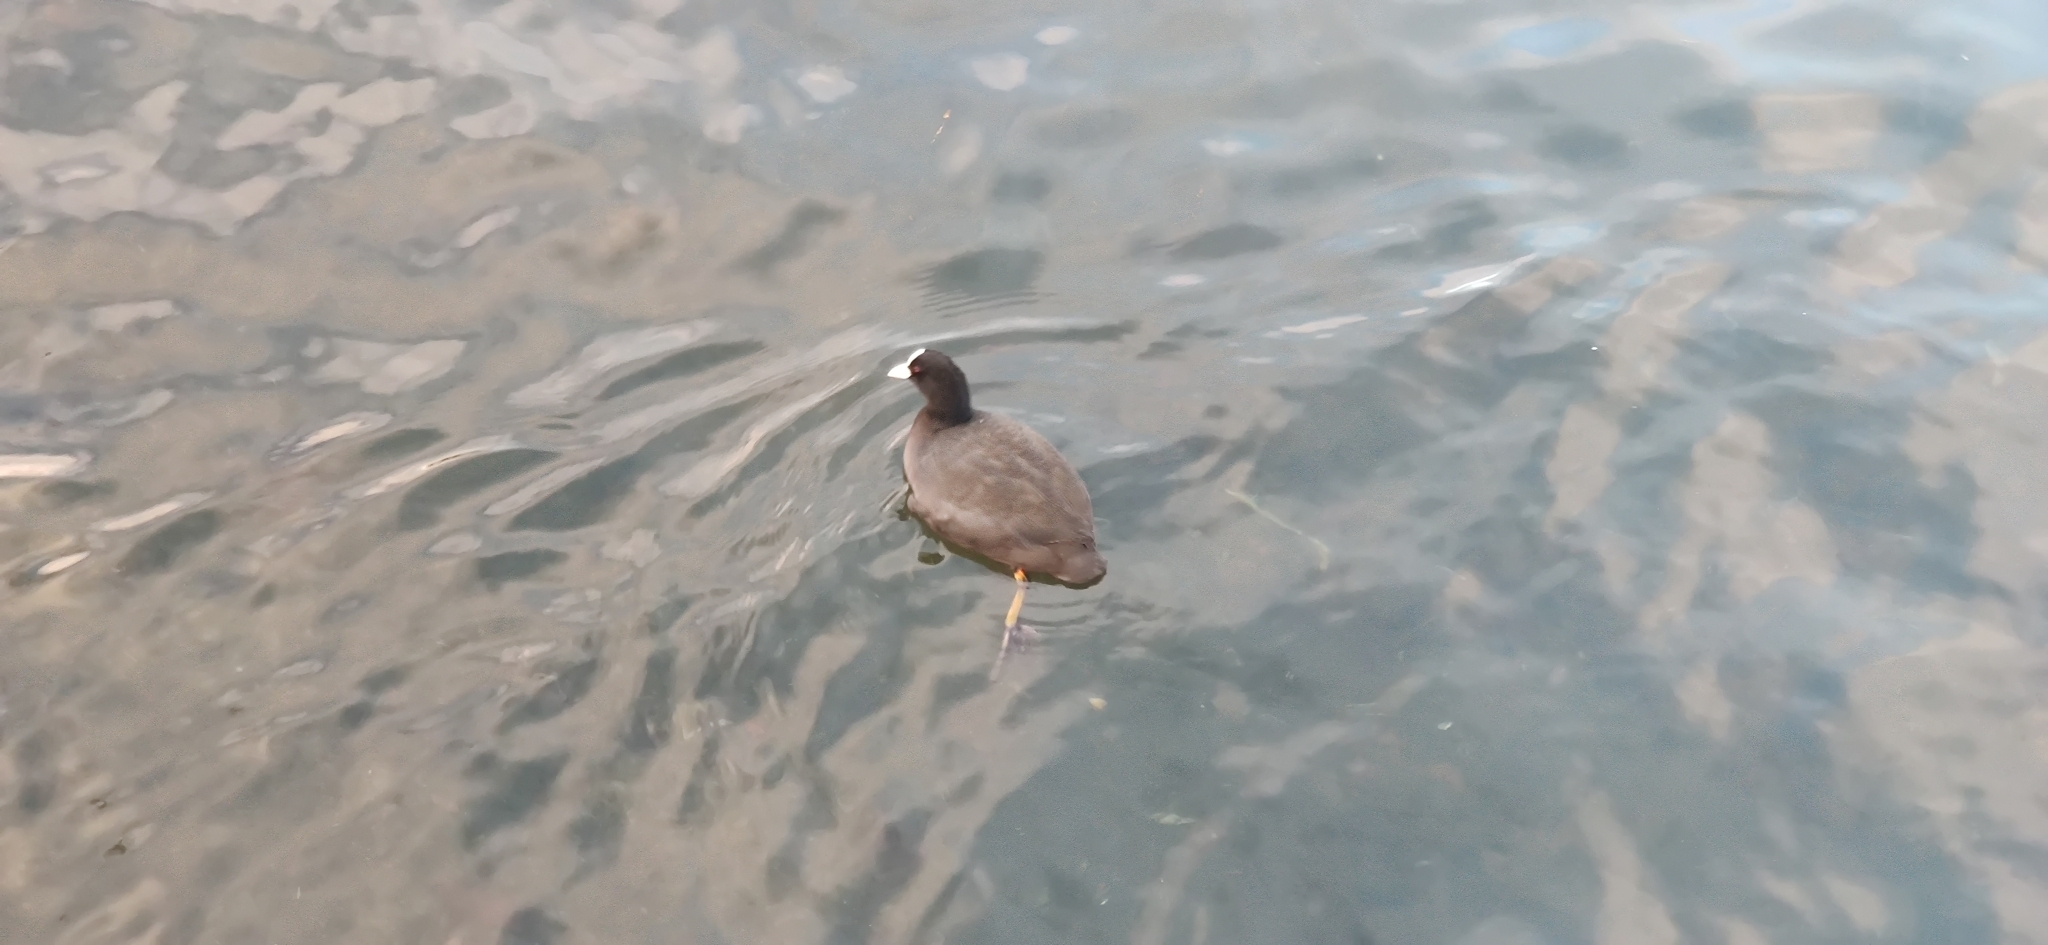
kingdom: Animalia
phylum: Chordata
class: Aves
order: Gruiformes
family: Rallidae
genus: Fulica
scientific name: Fulica atra
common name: Eurasian coot
